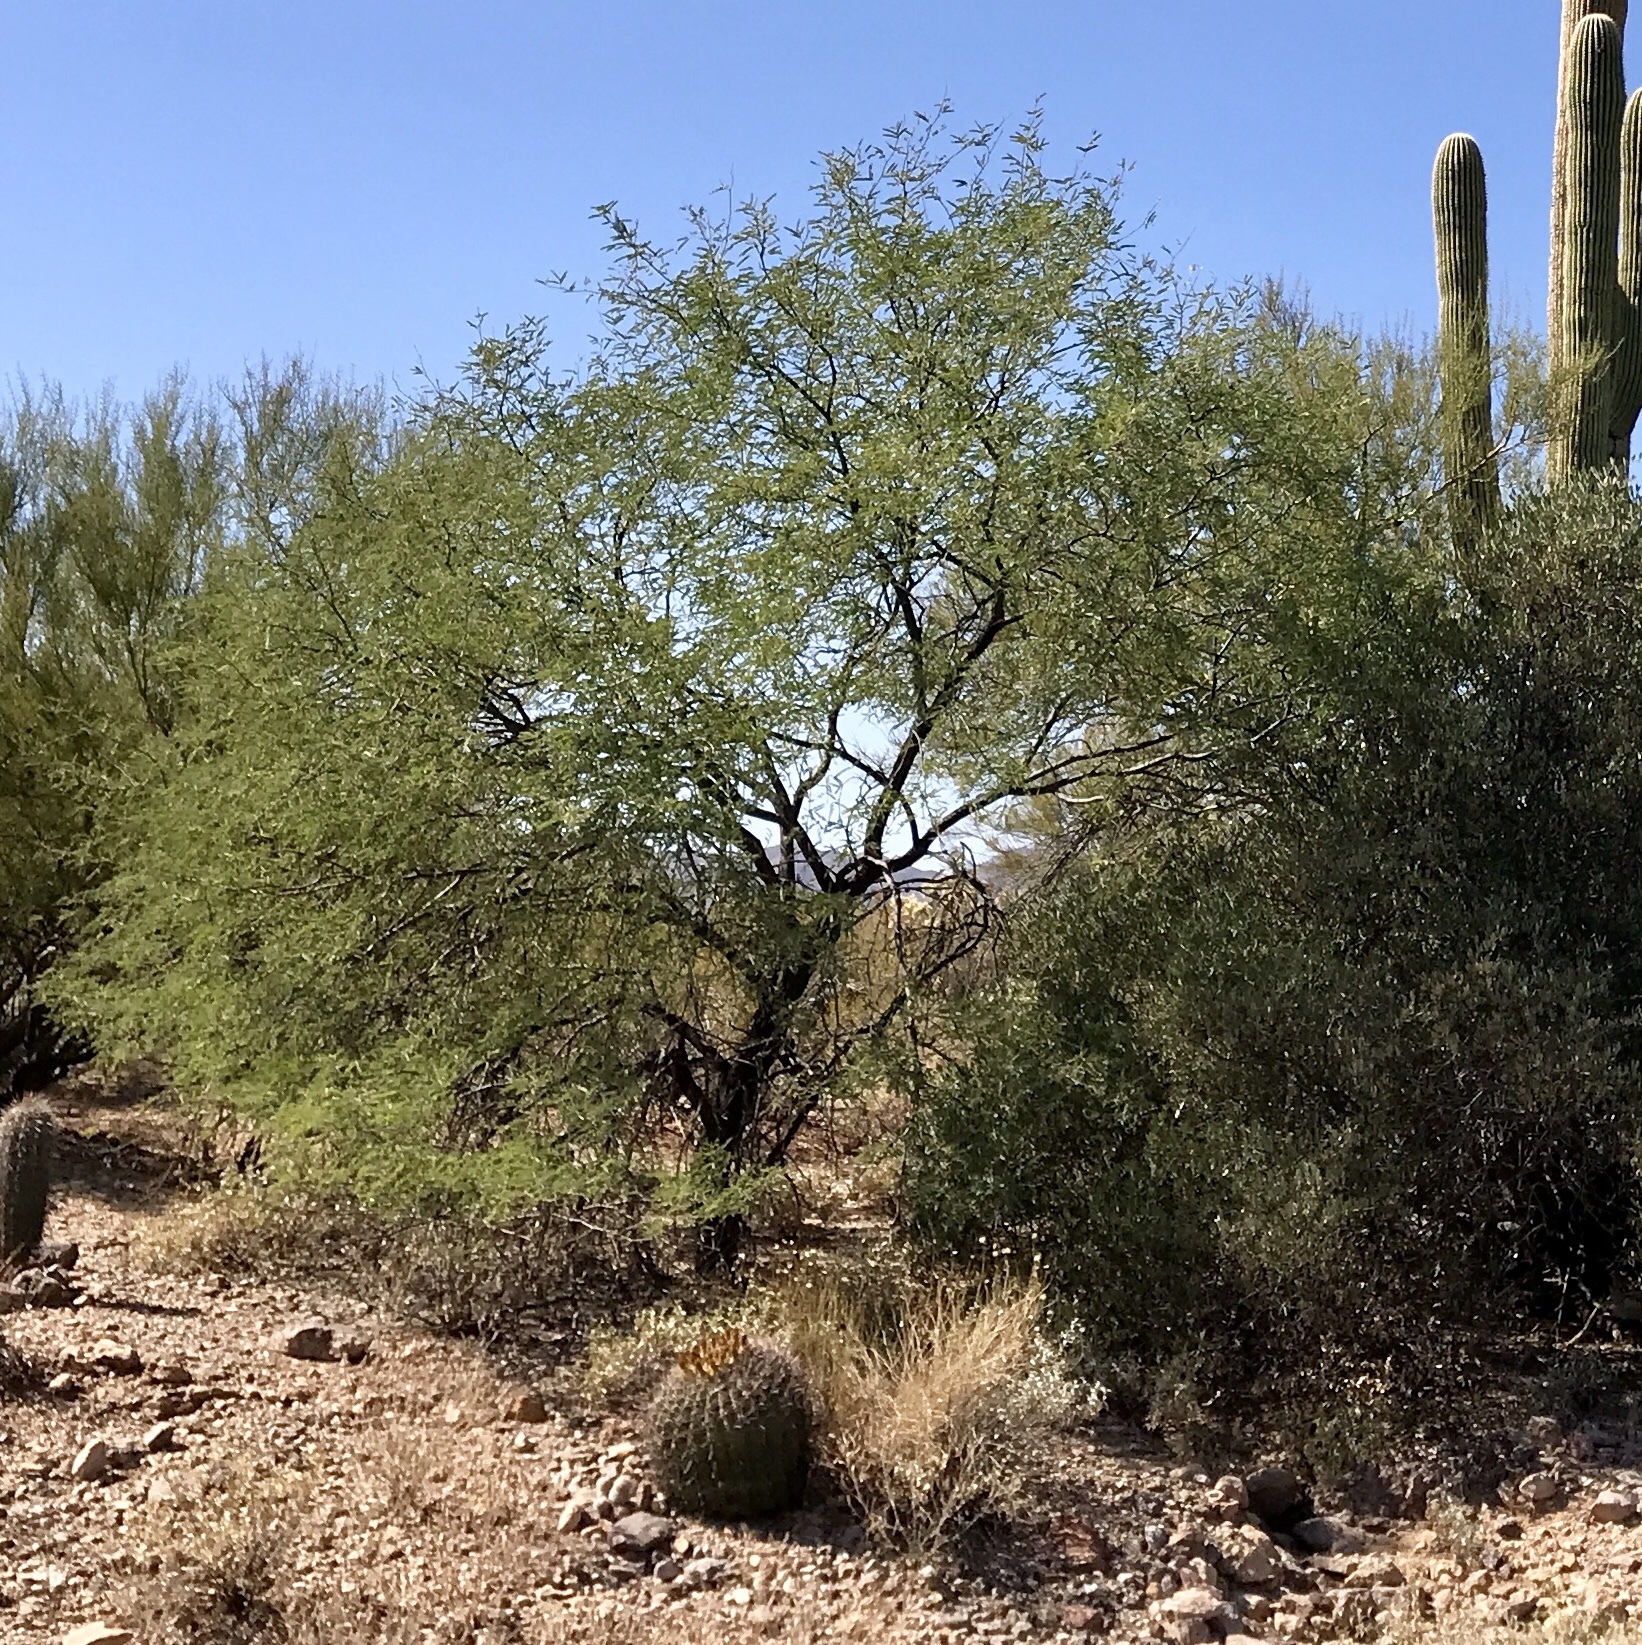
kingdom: Plantae
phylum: Tracheophyta
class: Magnoliopsida
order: Fabales
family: Fabaceae
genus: Prosopis
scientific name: Prosopis velutina
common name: Velvet mesquite
